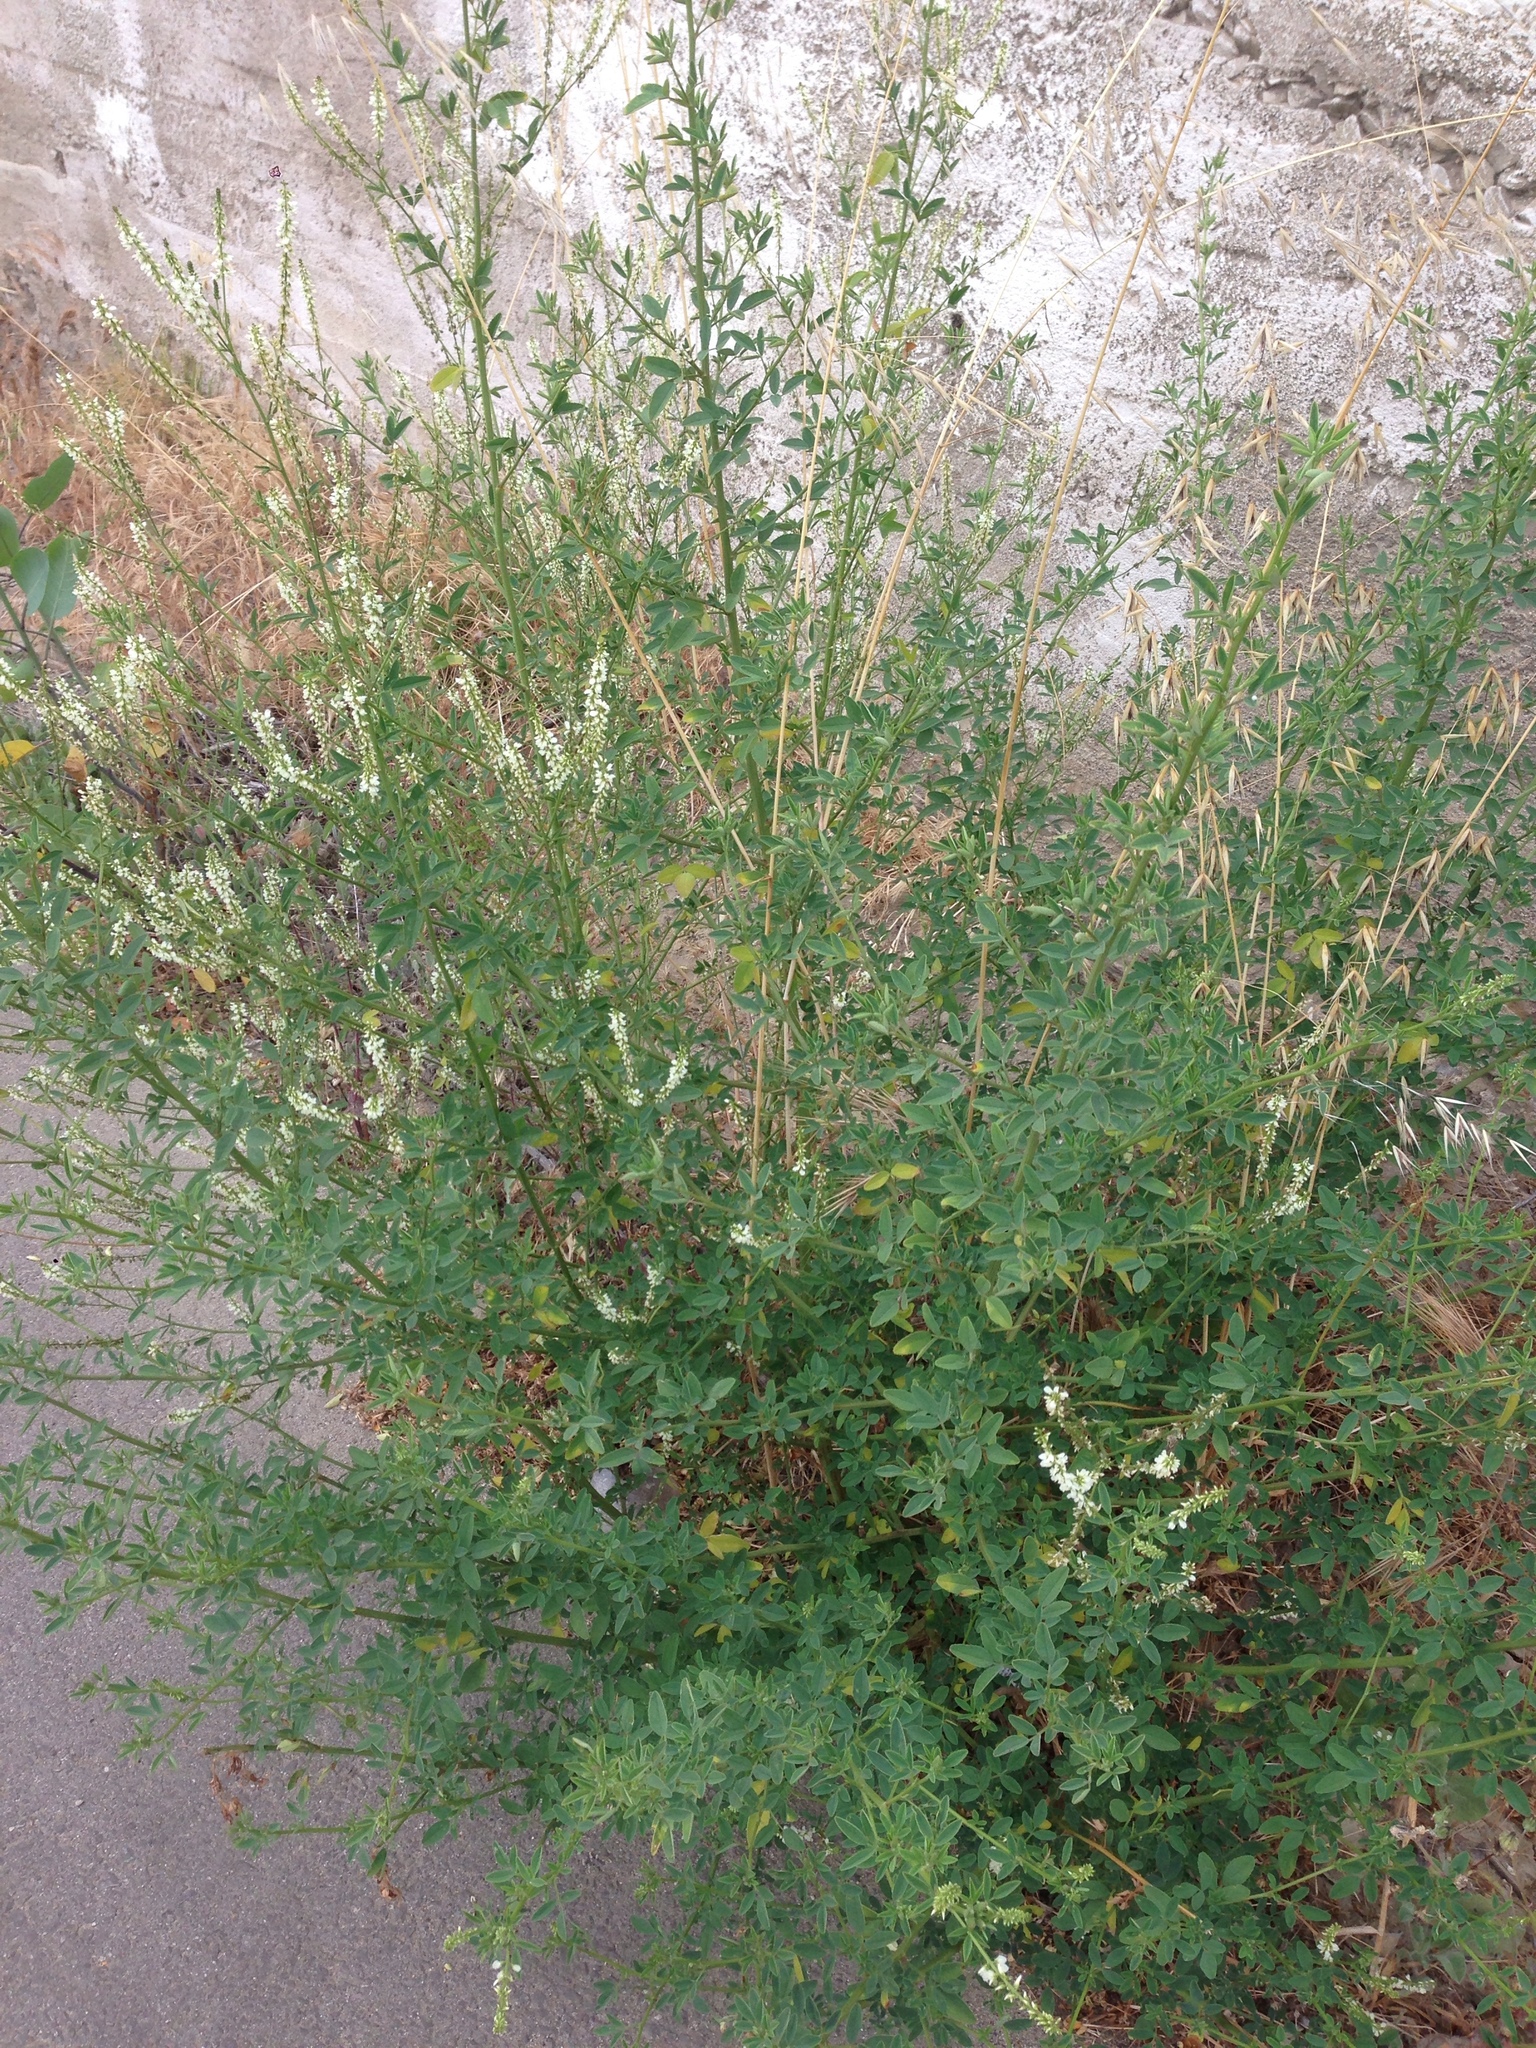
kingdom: Plantae
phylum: Tracheophyta
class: Magnoliopsida
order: Fabales
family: Fabaceae
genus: Melilotus
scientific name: Melilotus albus
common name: White melilot
